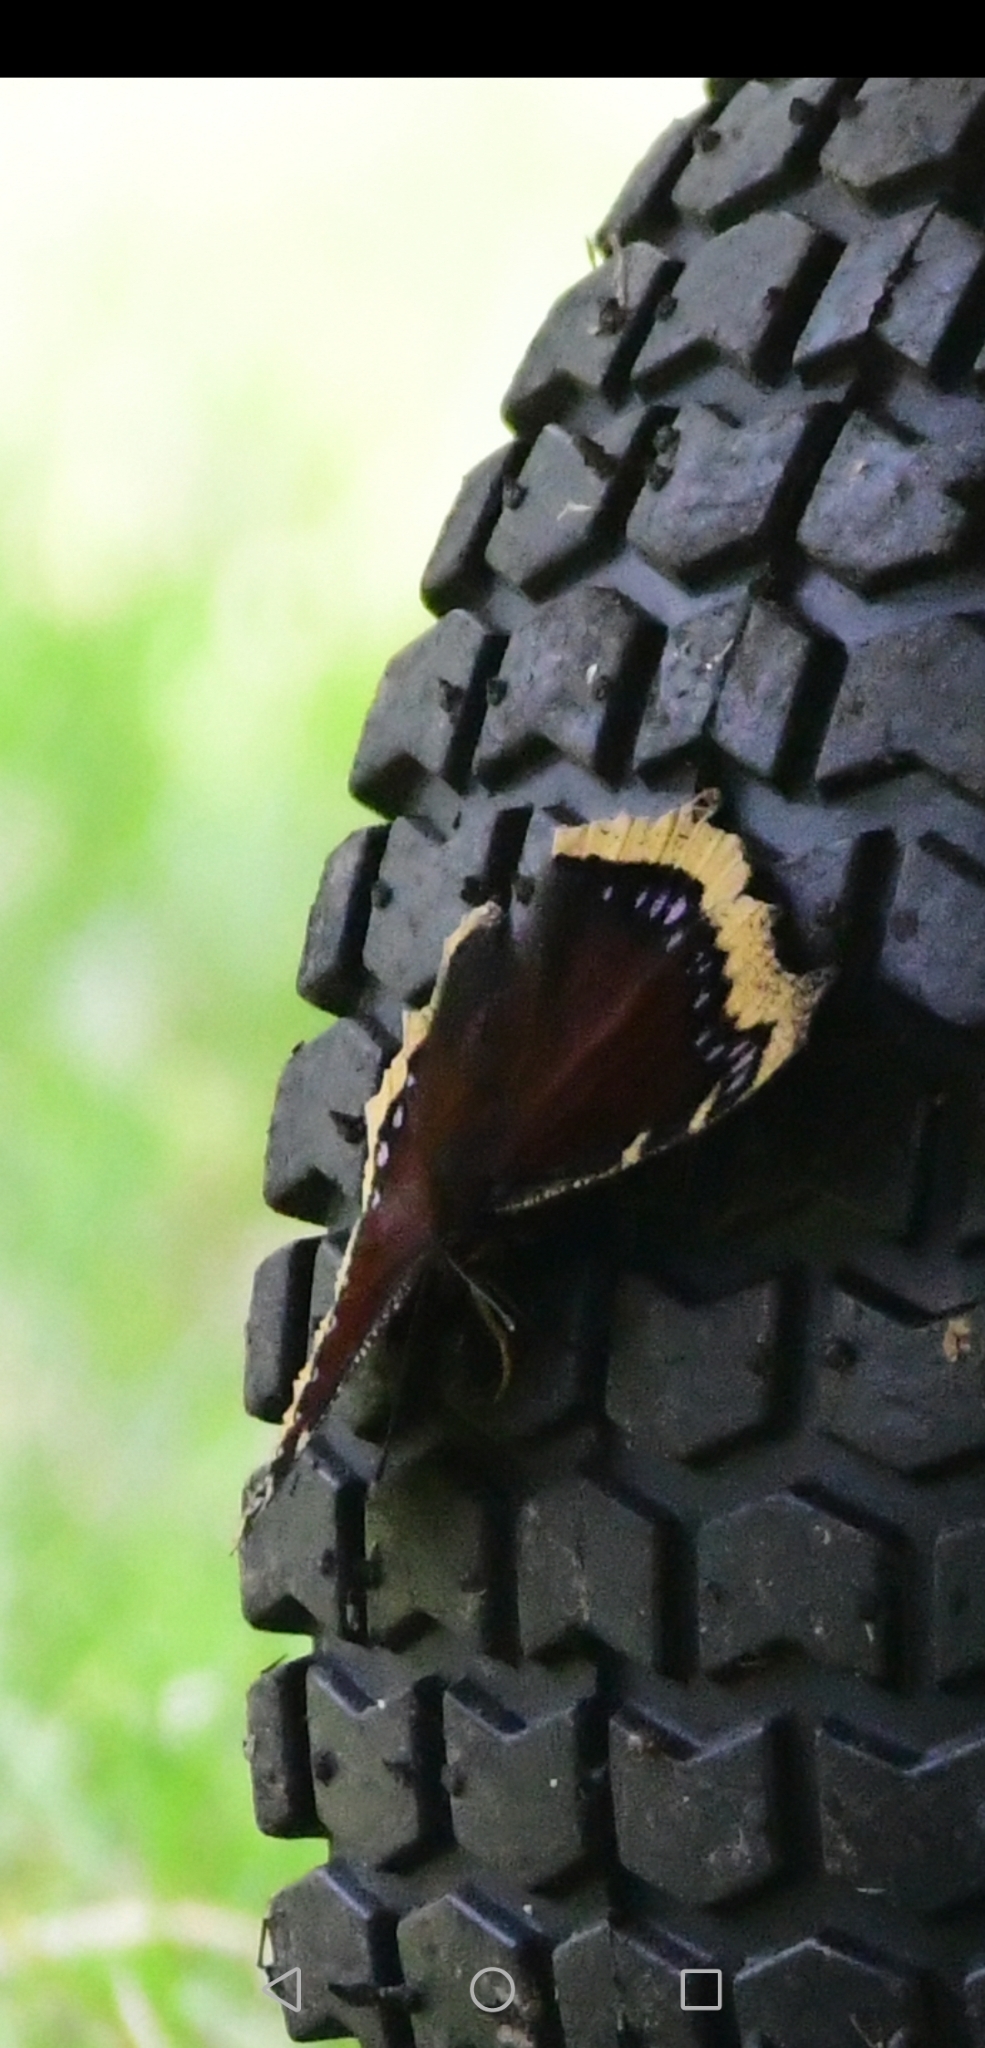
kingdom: Animalia
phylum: Arthropoda
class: Insecta
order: Lepidoptera
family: Nymphalidae
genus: Nymphalis
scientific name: Nymphalis antiopa
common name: Camberwell beauty
